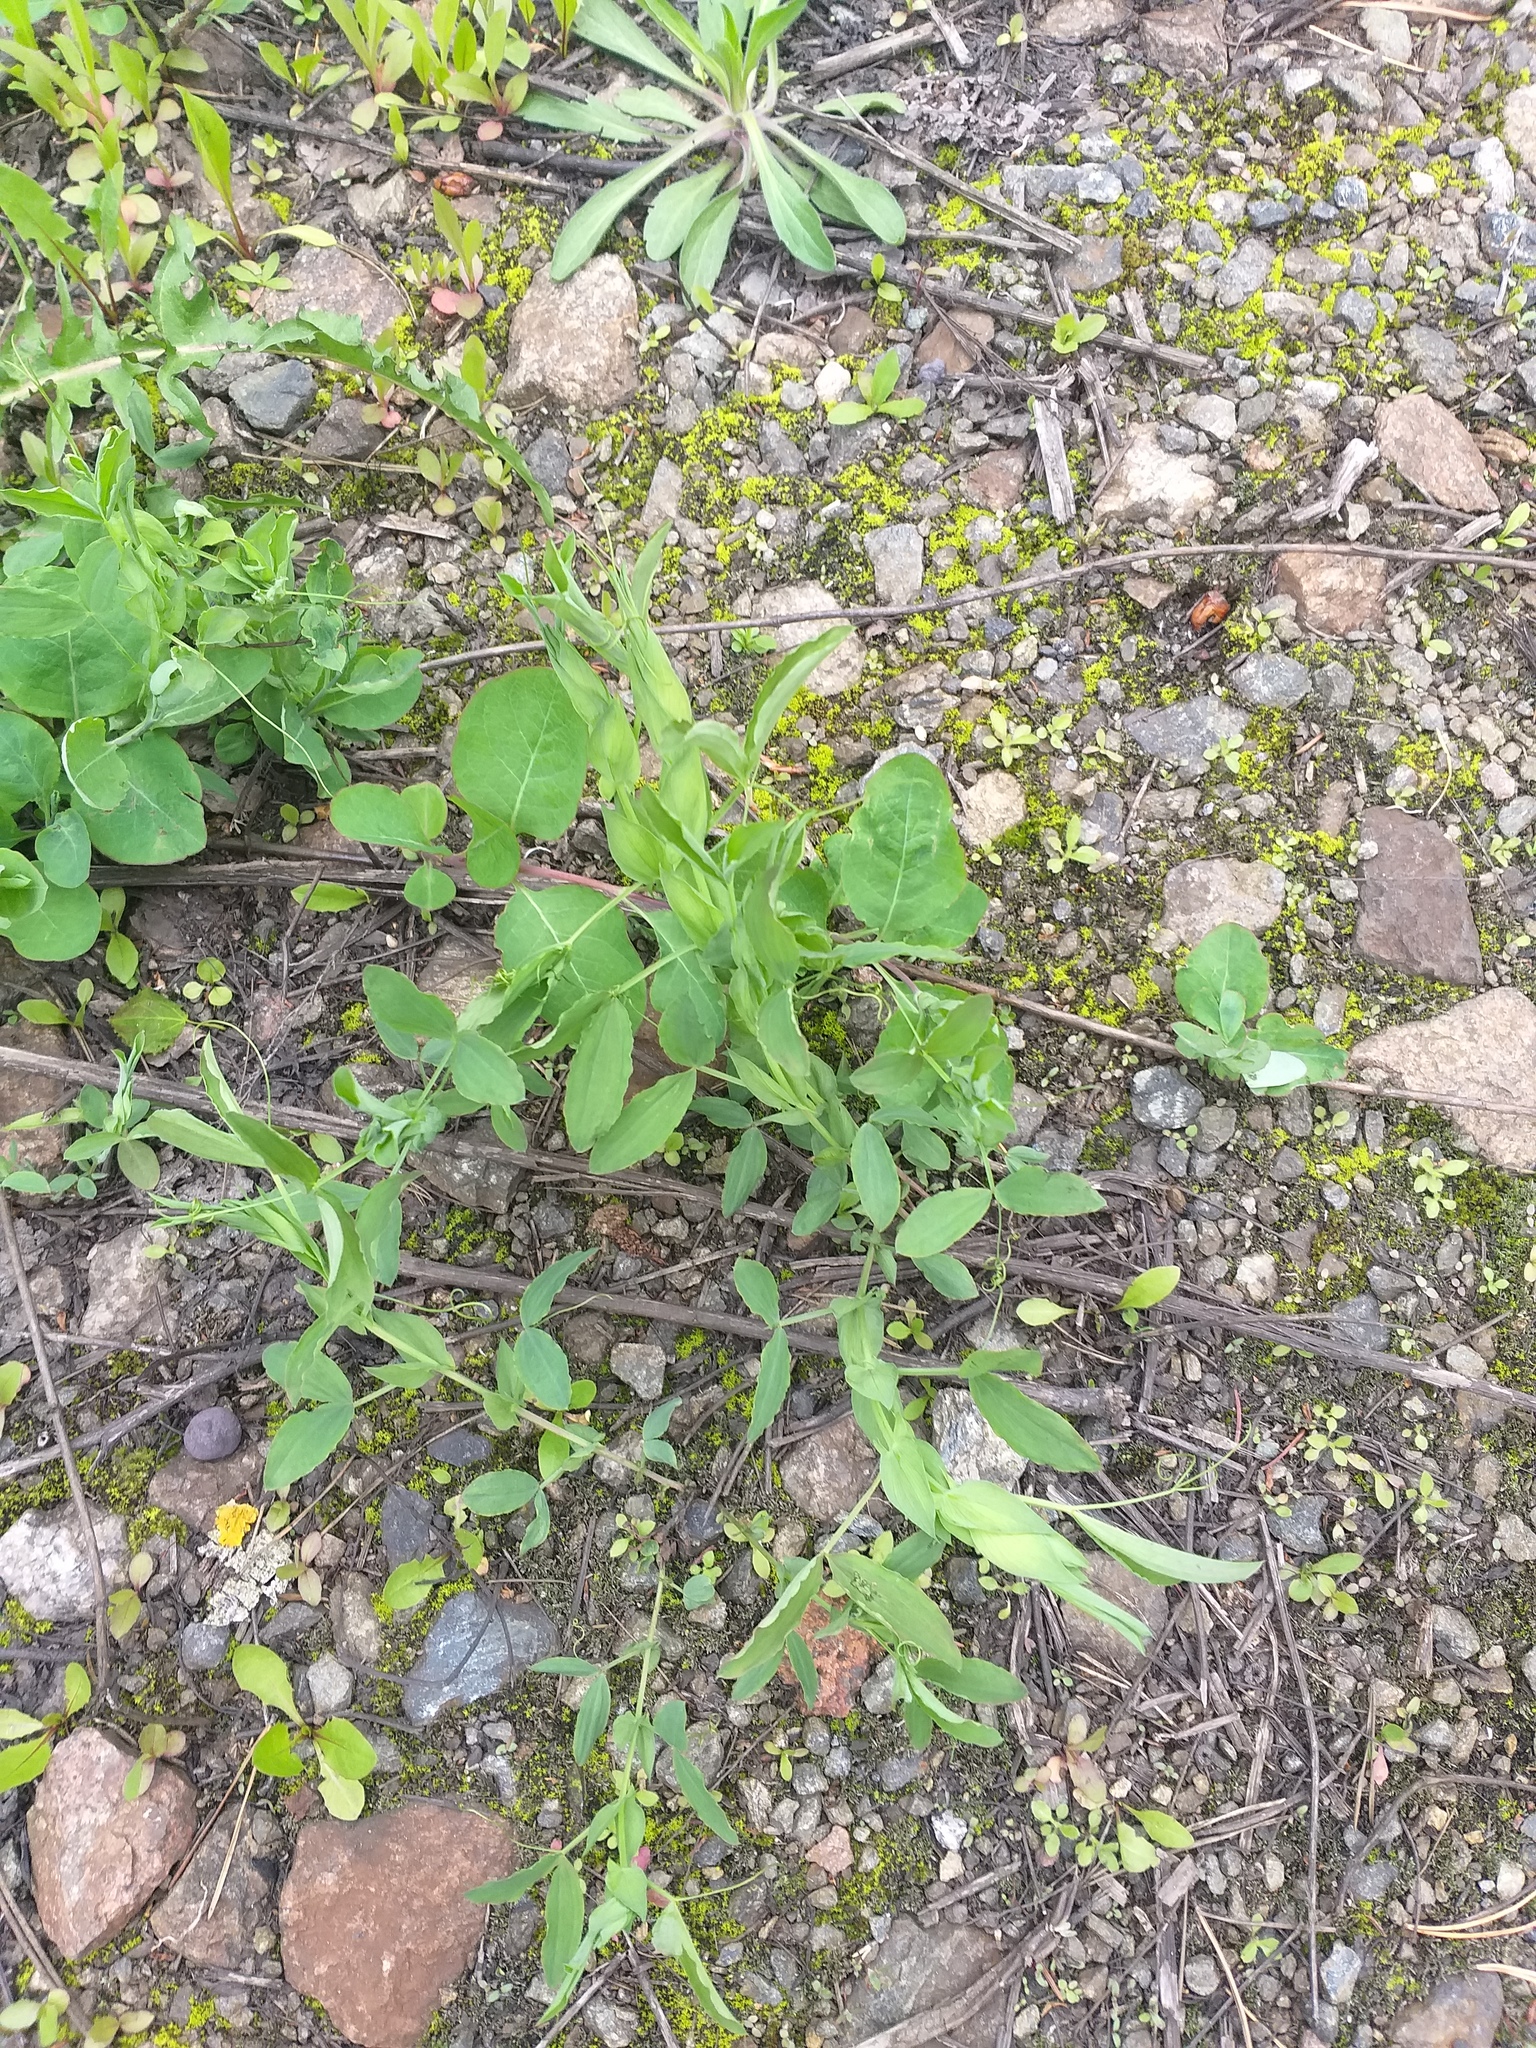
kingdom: Plantae
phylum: Tracheophyta
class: Magnoliopsida
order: Fabales
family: Fabaceae
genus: Lathyrus
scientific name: Lathyrus pratensis
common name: Meadow vetchling
